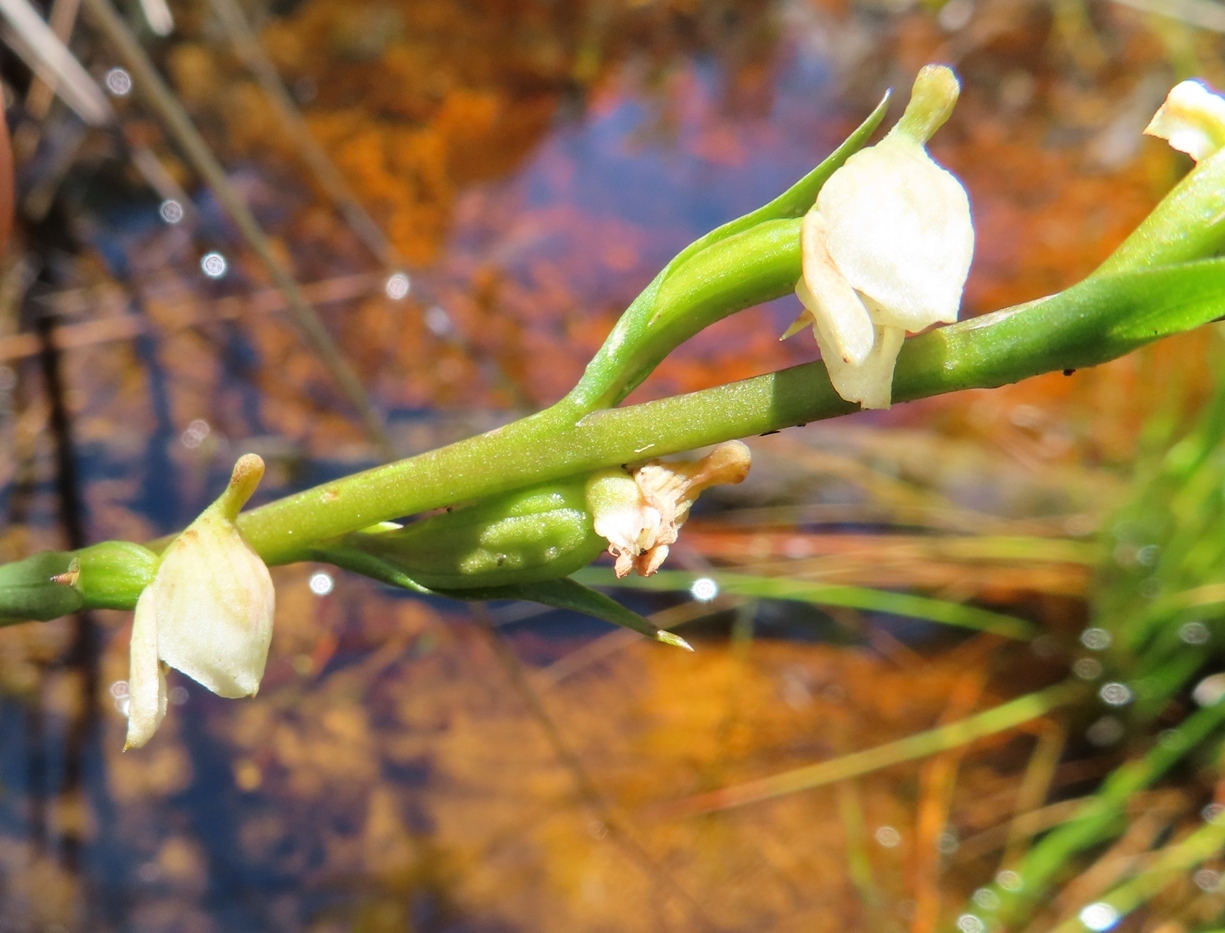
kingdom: Plantae
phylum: Tracheophyta
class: Liliopsida
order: Asparagales
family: Orchidaceae
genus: Disa
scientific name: Disa uncinata
